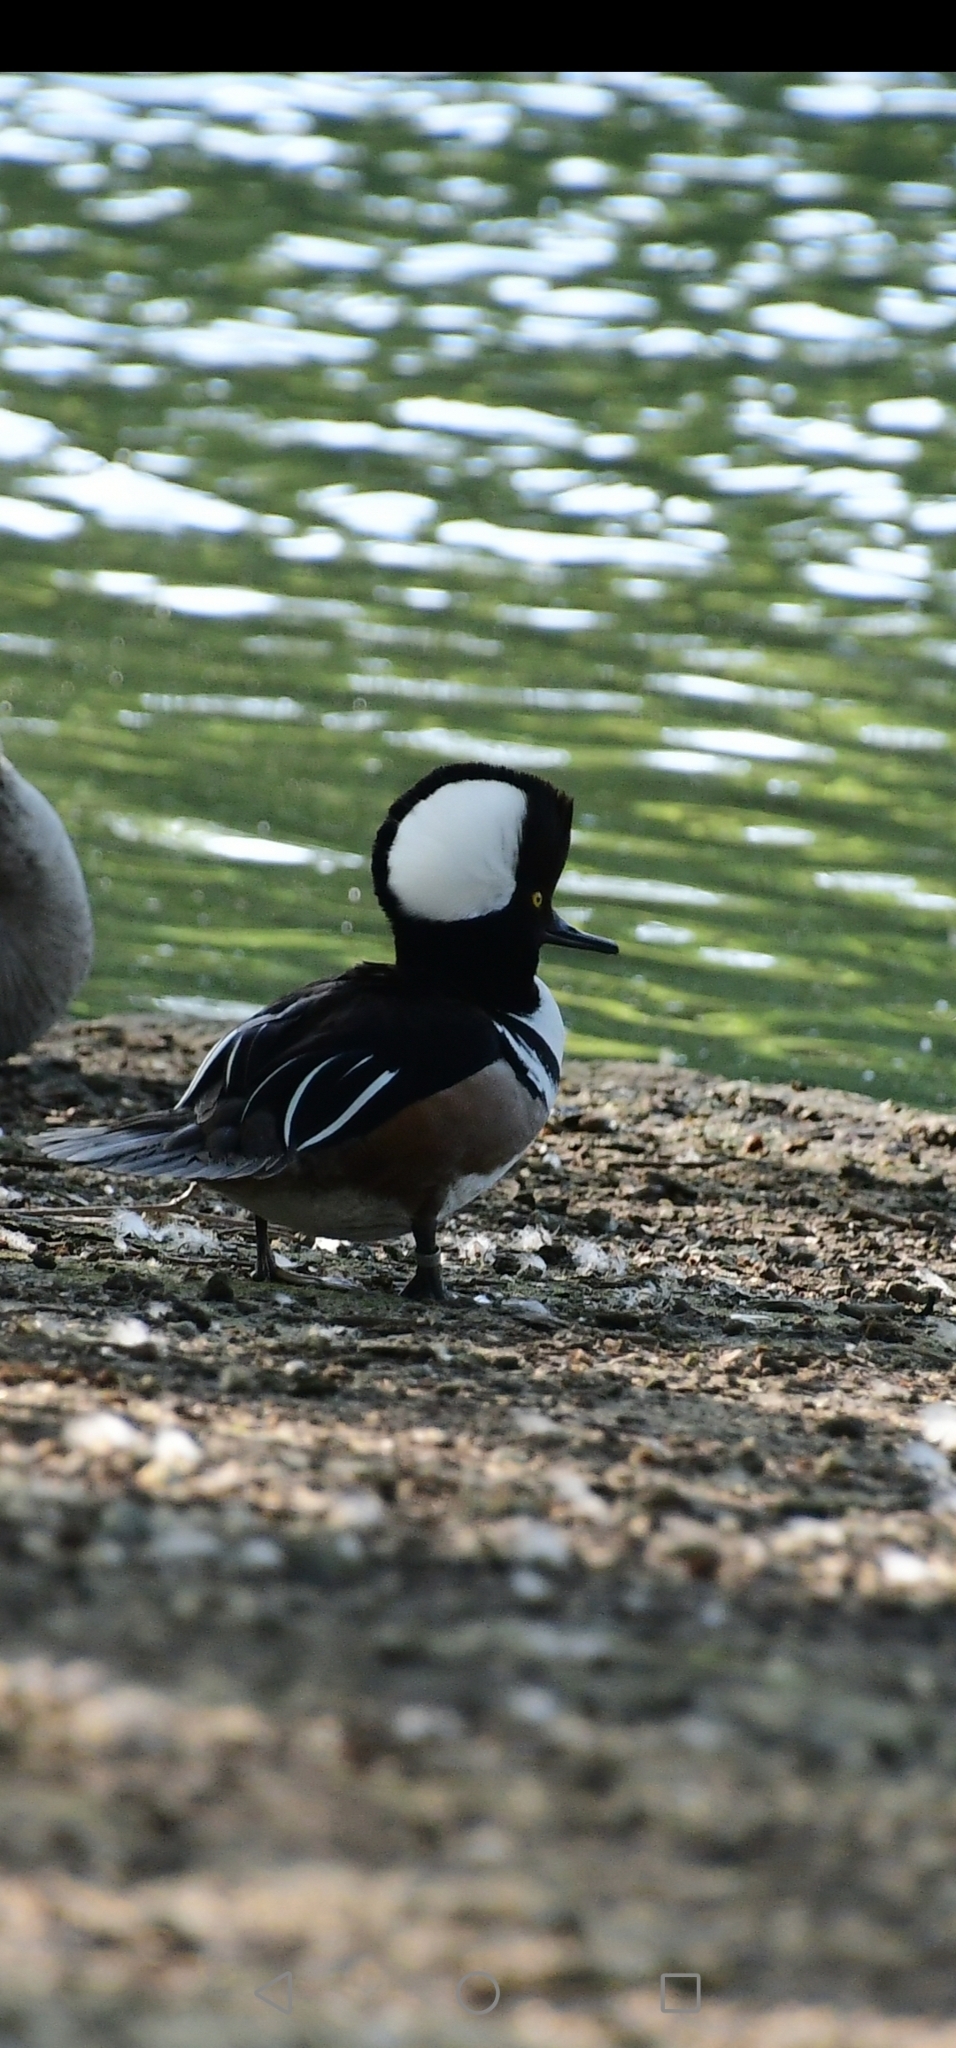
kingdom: Animalia
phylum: Chordata
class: Aves
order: Anseriformes
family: Anatidae
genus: Lophodytes
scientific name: Lophodytes cucullatus
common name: Hooded merganser
